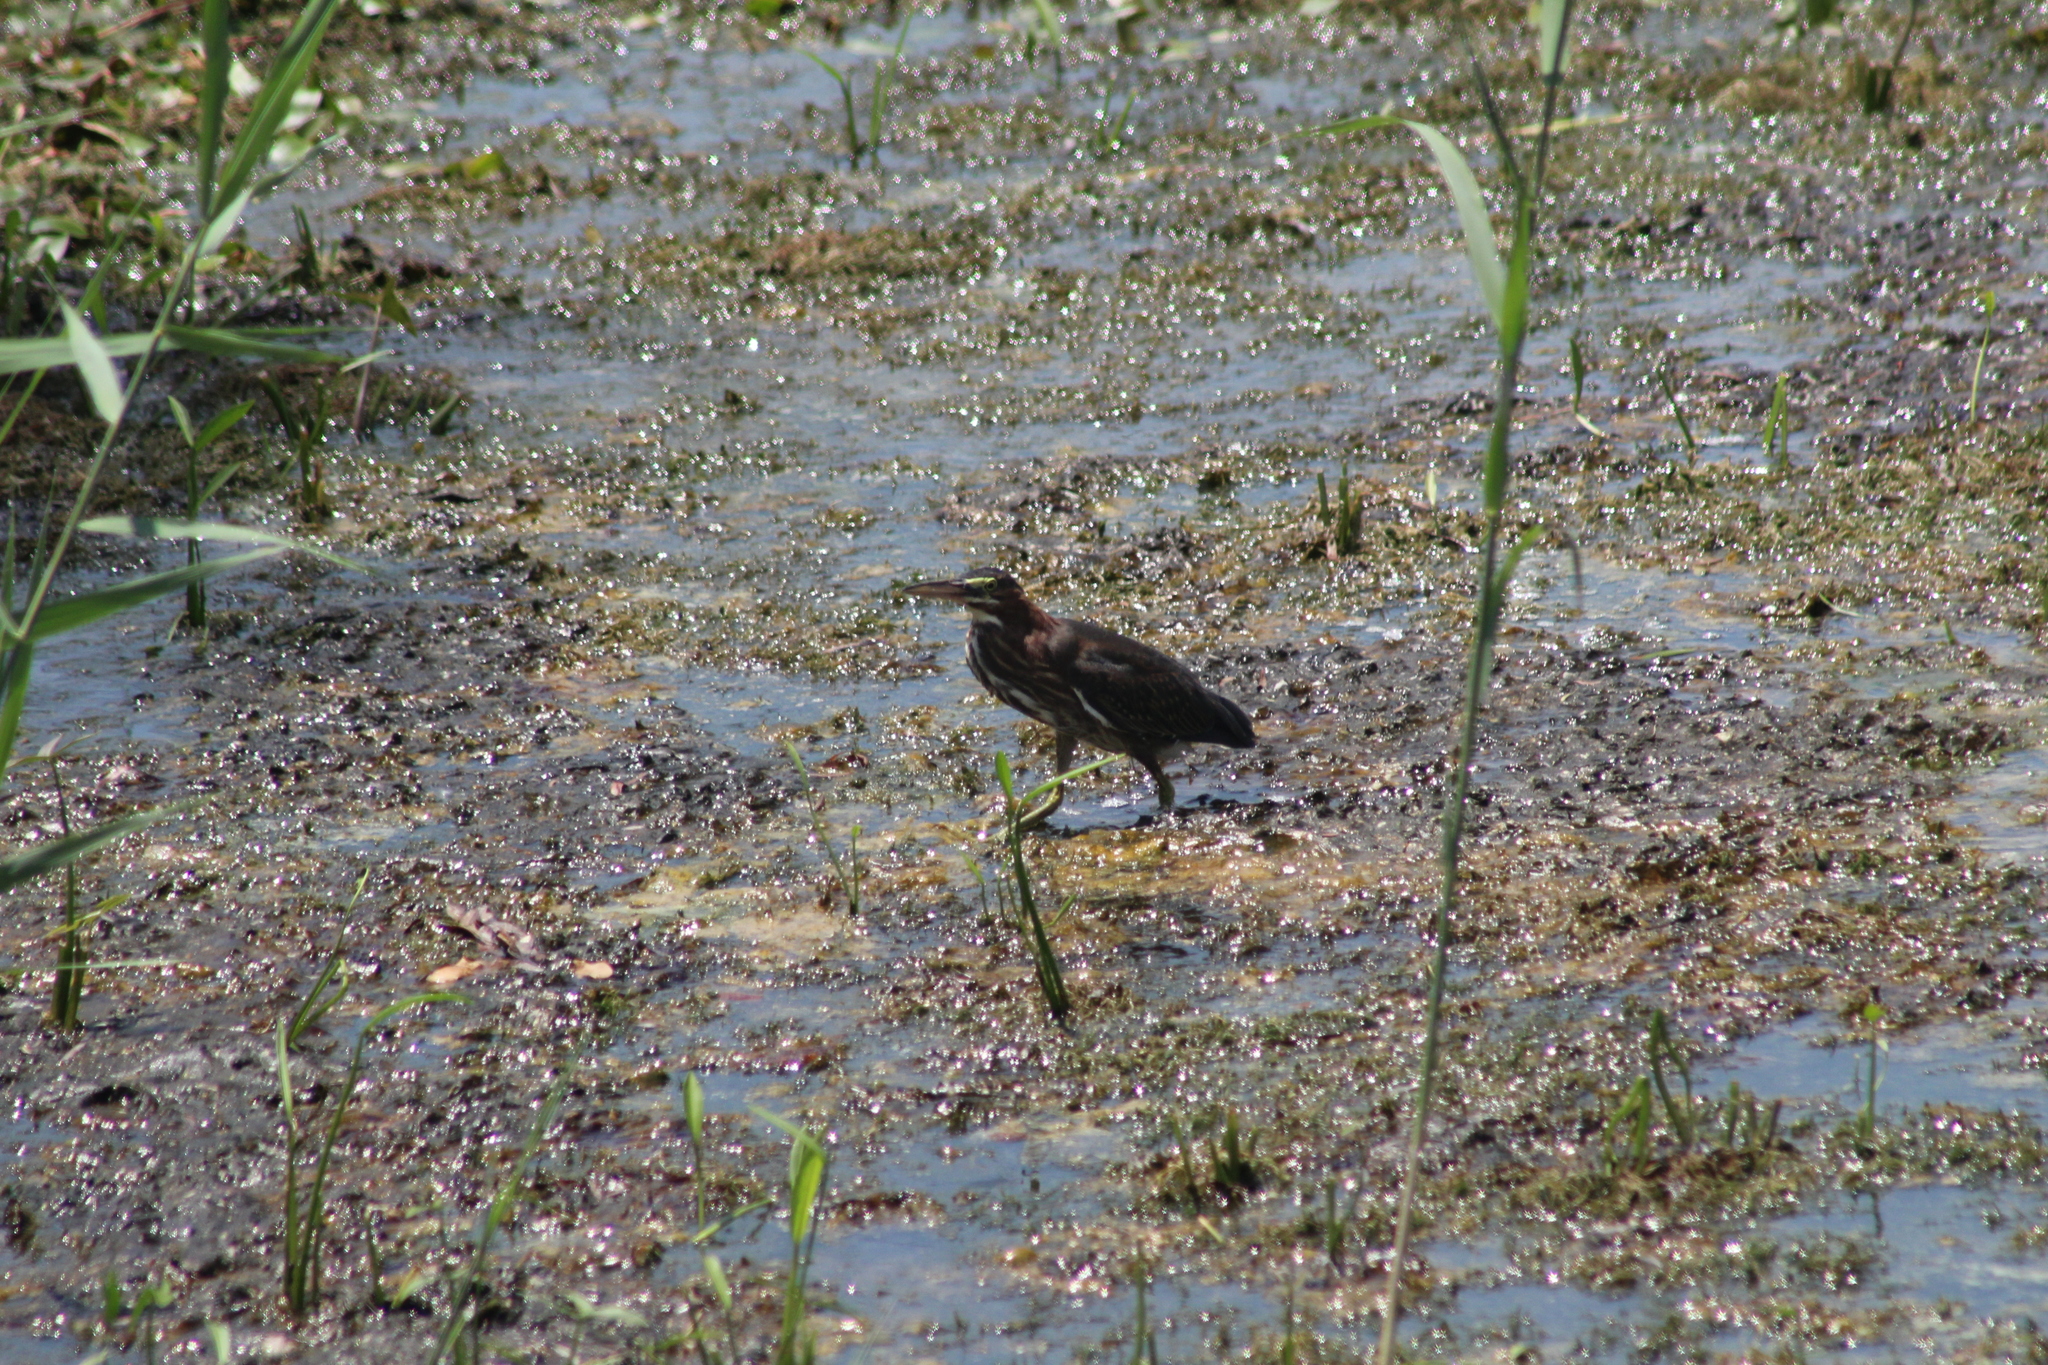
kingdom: Animalia
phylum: Chordata
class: Aves
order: Pelecaniformes
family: Ardeidae
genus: Butorides
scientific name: Butorides virescens
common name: Green heron
